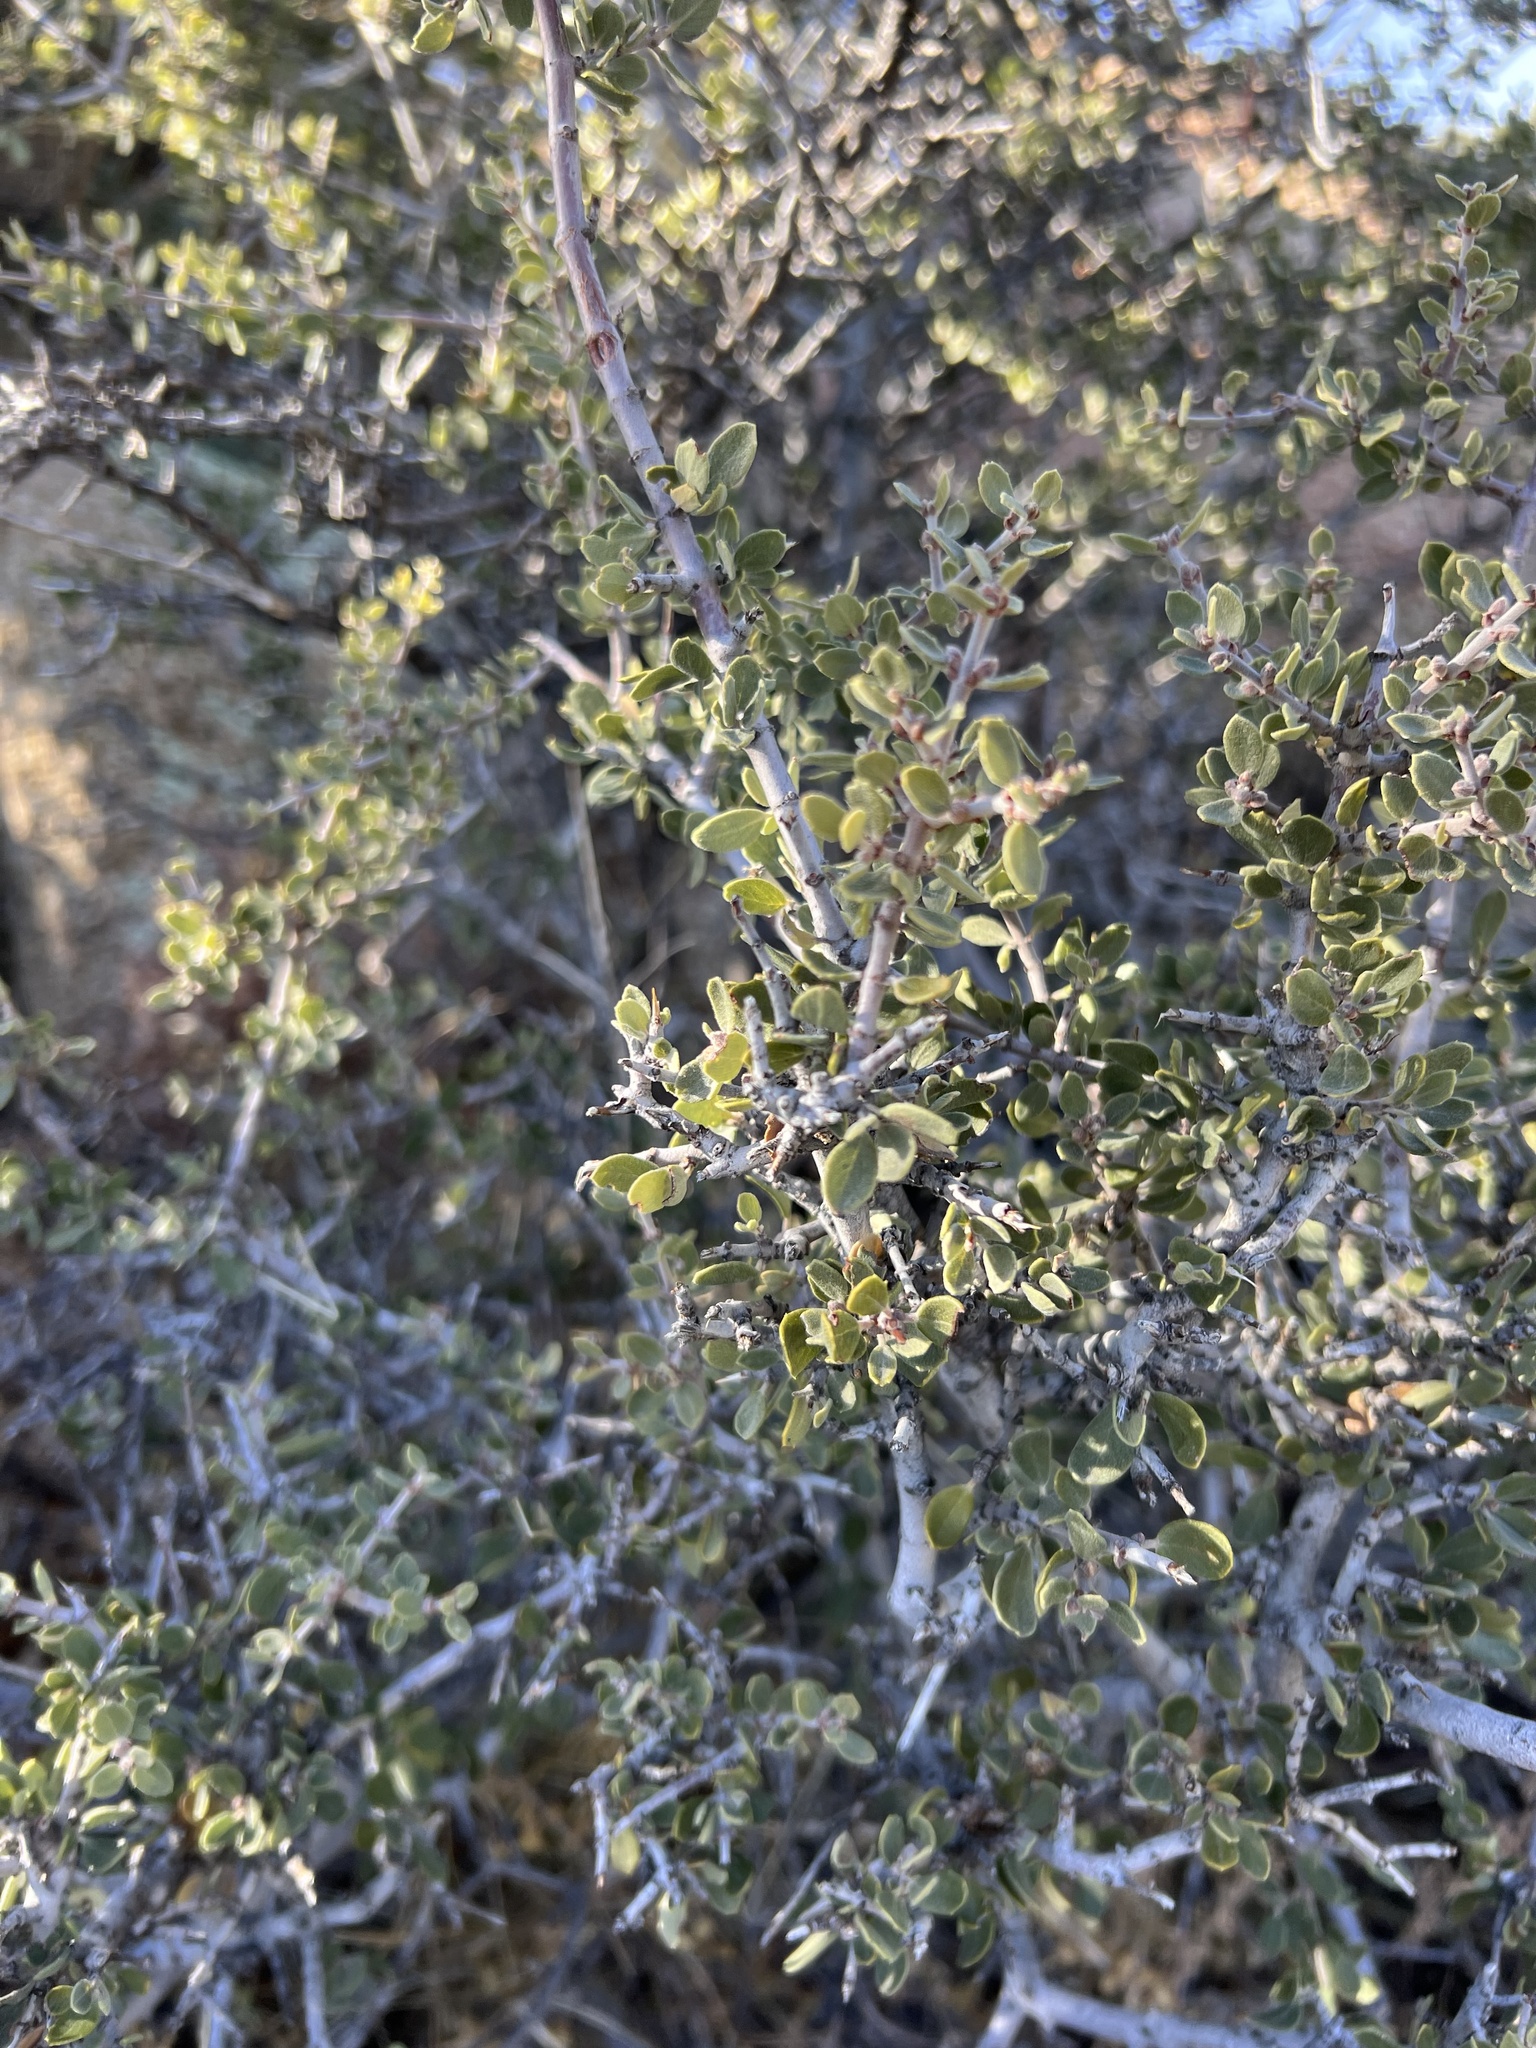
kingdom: Plantae
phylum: Tracheophyta
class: Magnoliopsida
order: Rosales
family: Rhamnaceae
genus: Ceanothus
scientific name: Ceanothus pauciflorus
